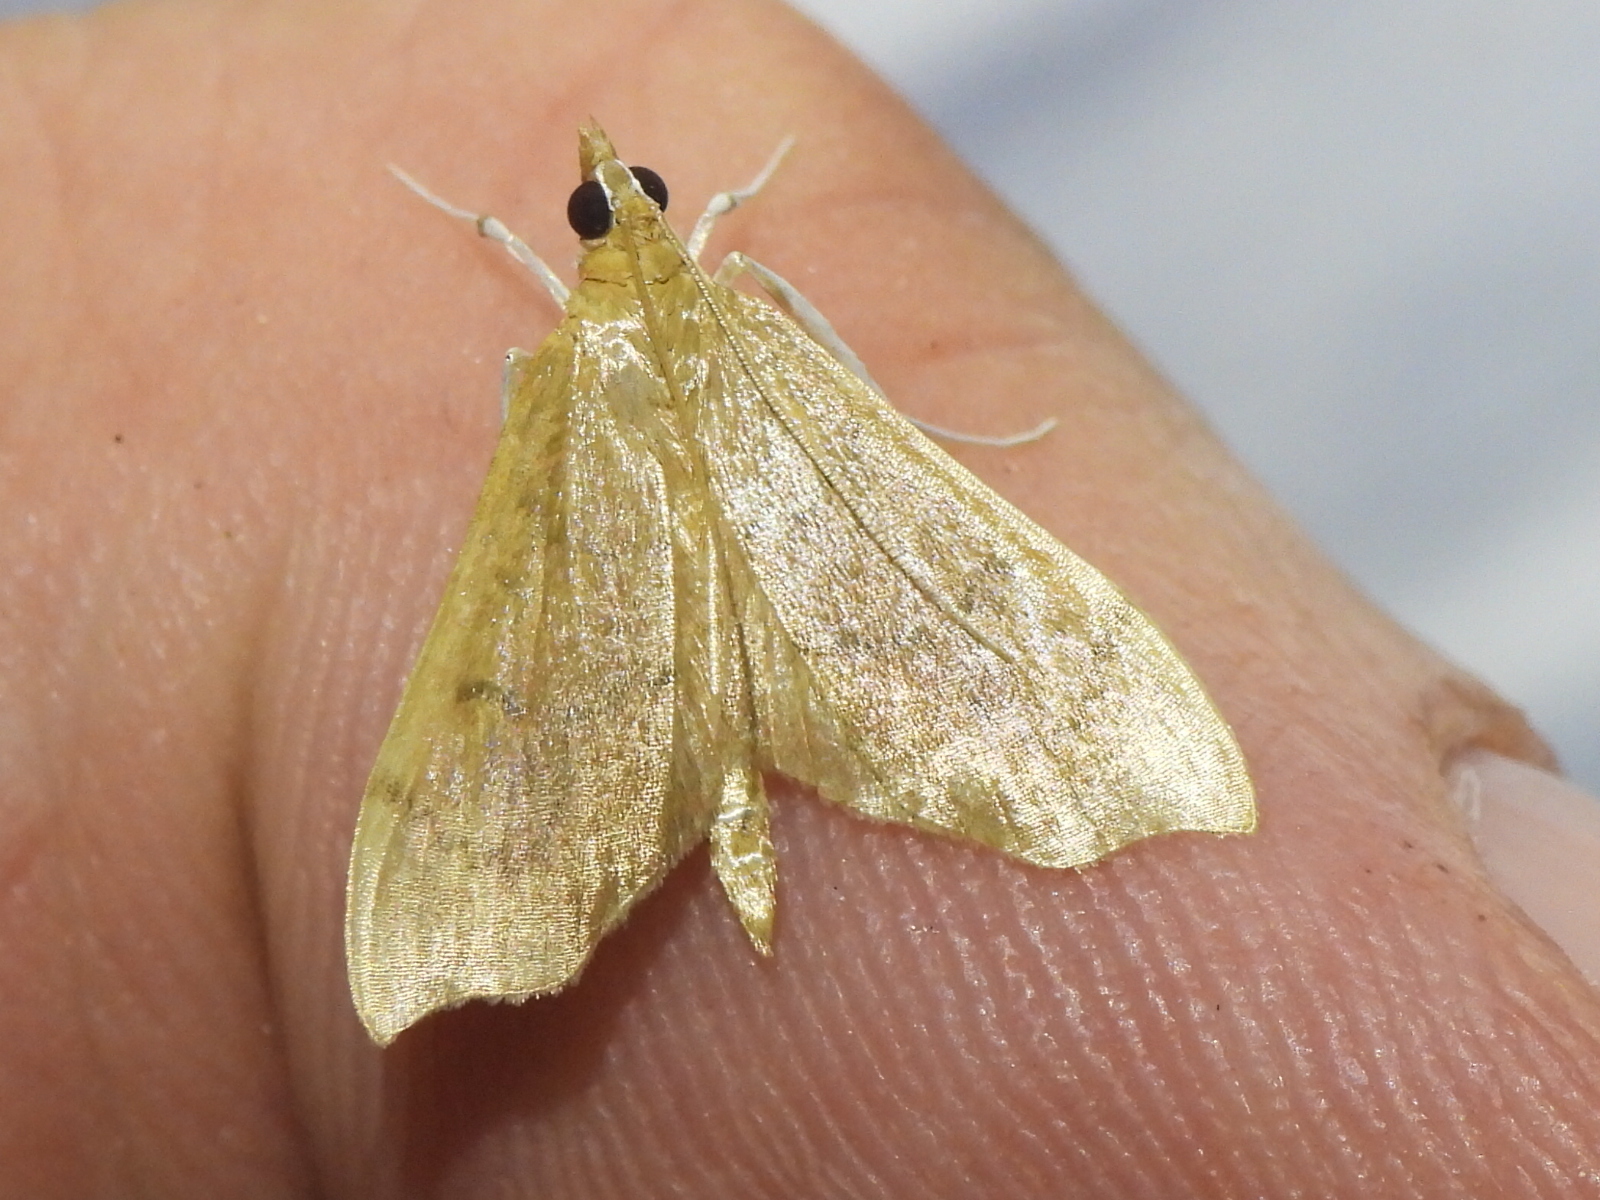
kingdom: Animalia
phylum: Arthropoda
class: Insecta
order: Lepidoptera
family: Crambidae
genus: Sericoplaga
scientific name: Sericoplaga externalis
